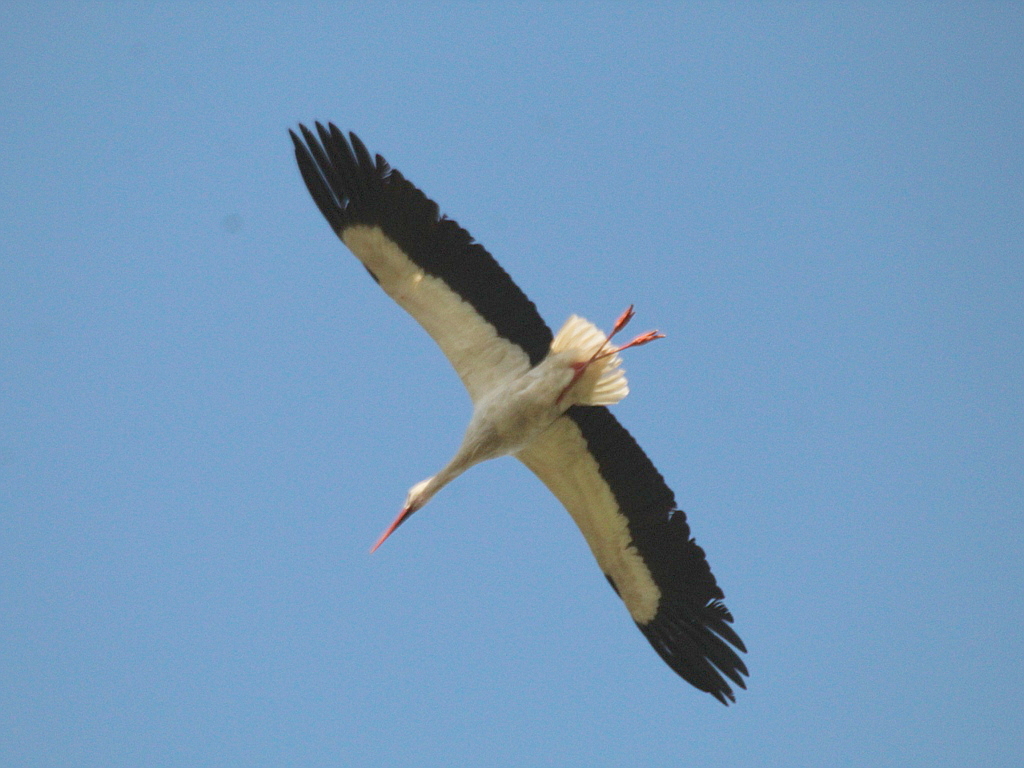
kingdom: Animalia
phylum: Chordata
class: Aves
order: Ciconiiformes
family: Ciconiidae
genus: Ciconia
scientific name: Ciconia ciconia
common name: White stork
